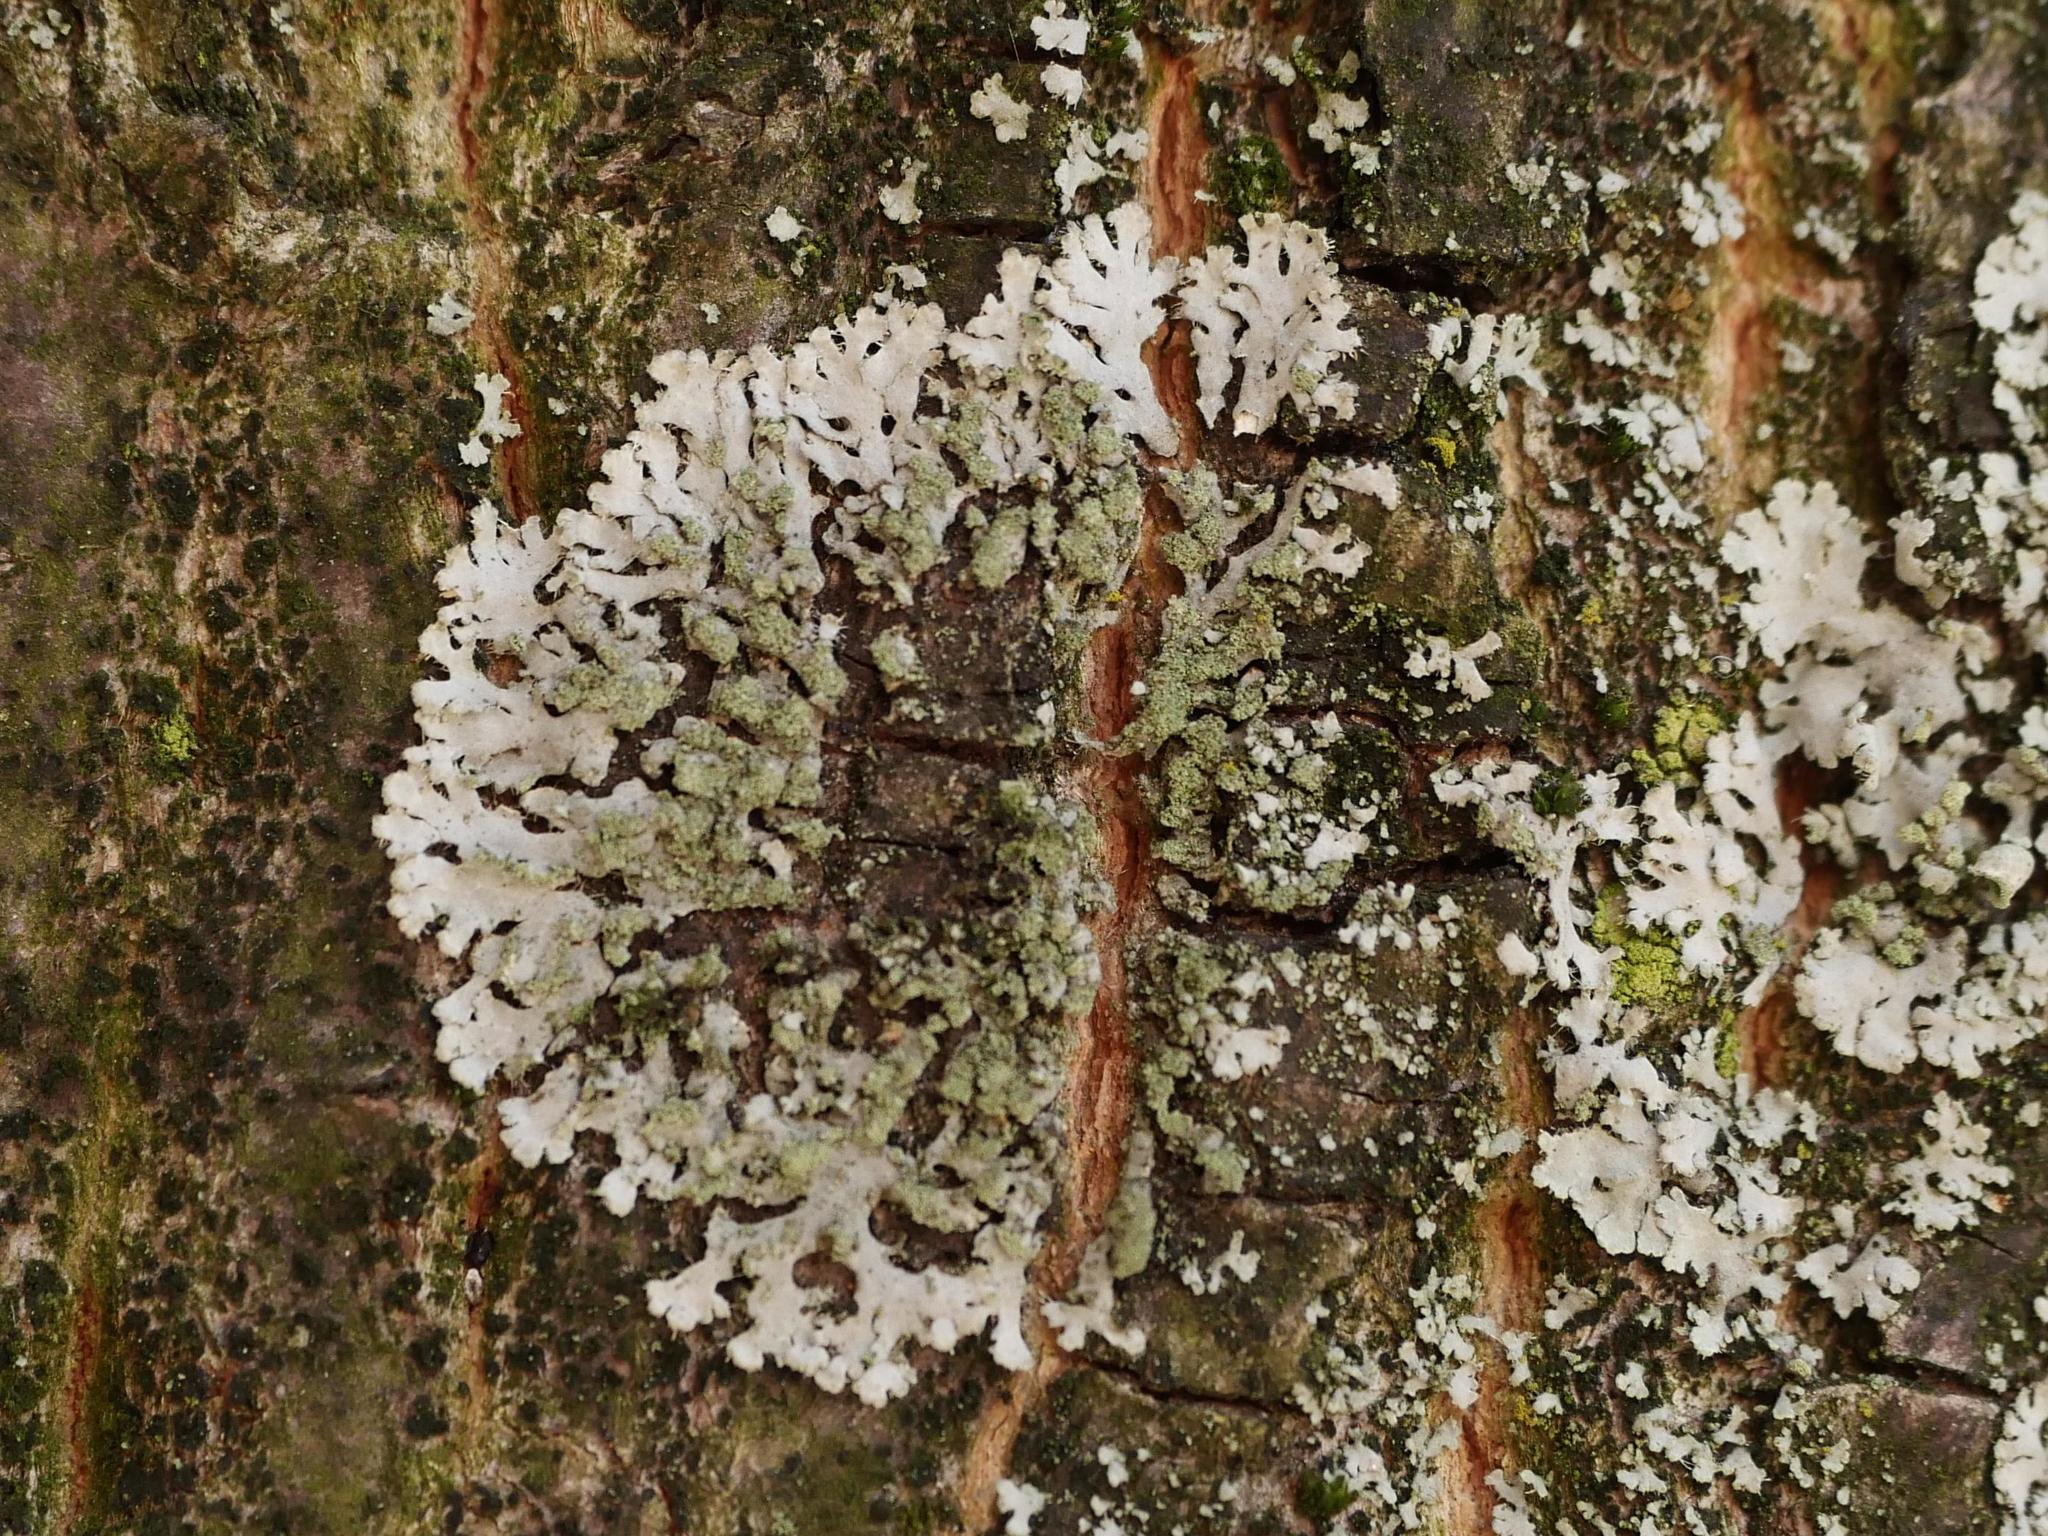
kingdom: Fungi
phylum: Ascomycota
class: Lecanoromycetes
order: Caliciales
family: Physciaceae
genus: Phaeophyscia
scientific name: Phaeophyscia orbicularis
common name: Mealy shadow lichen
